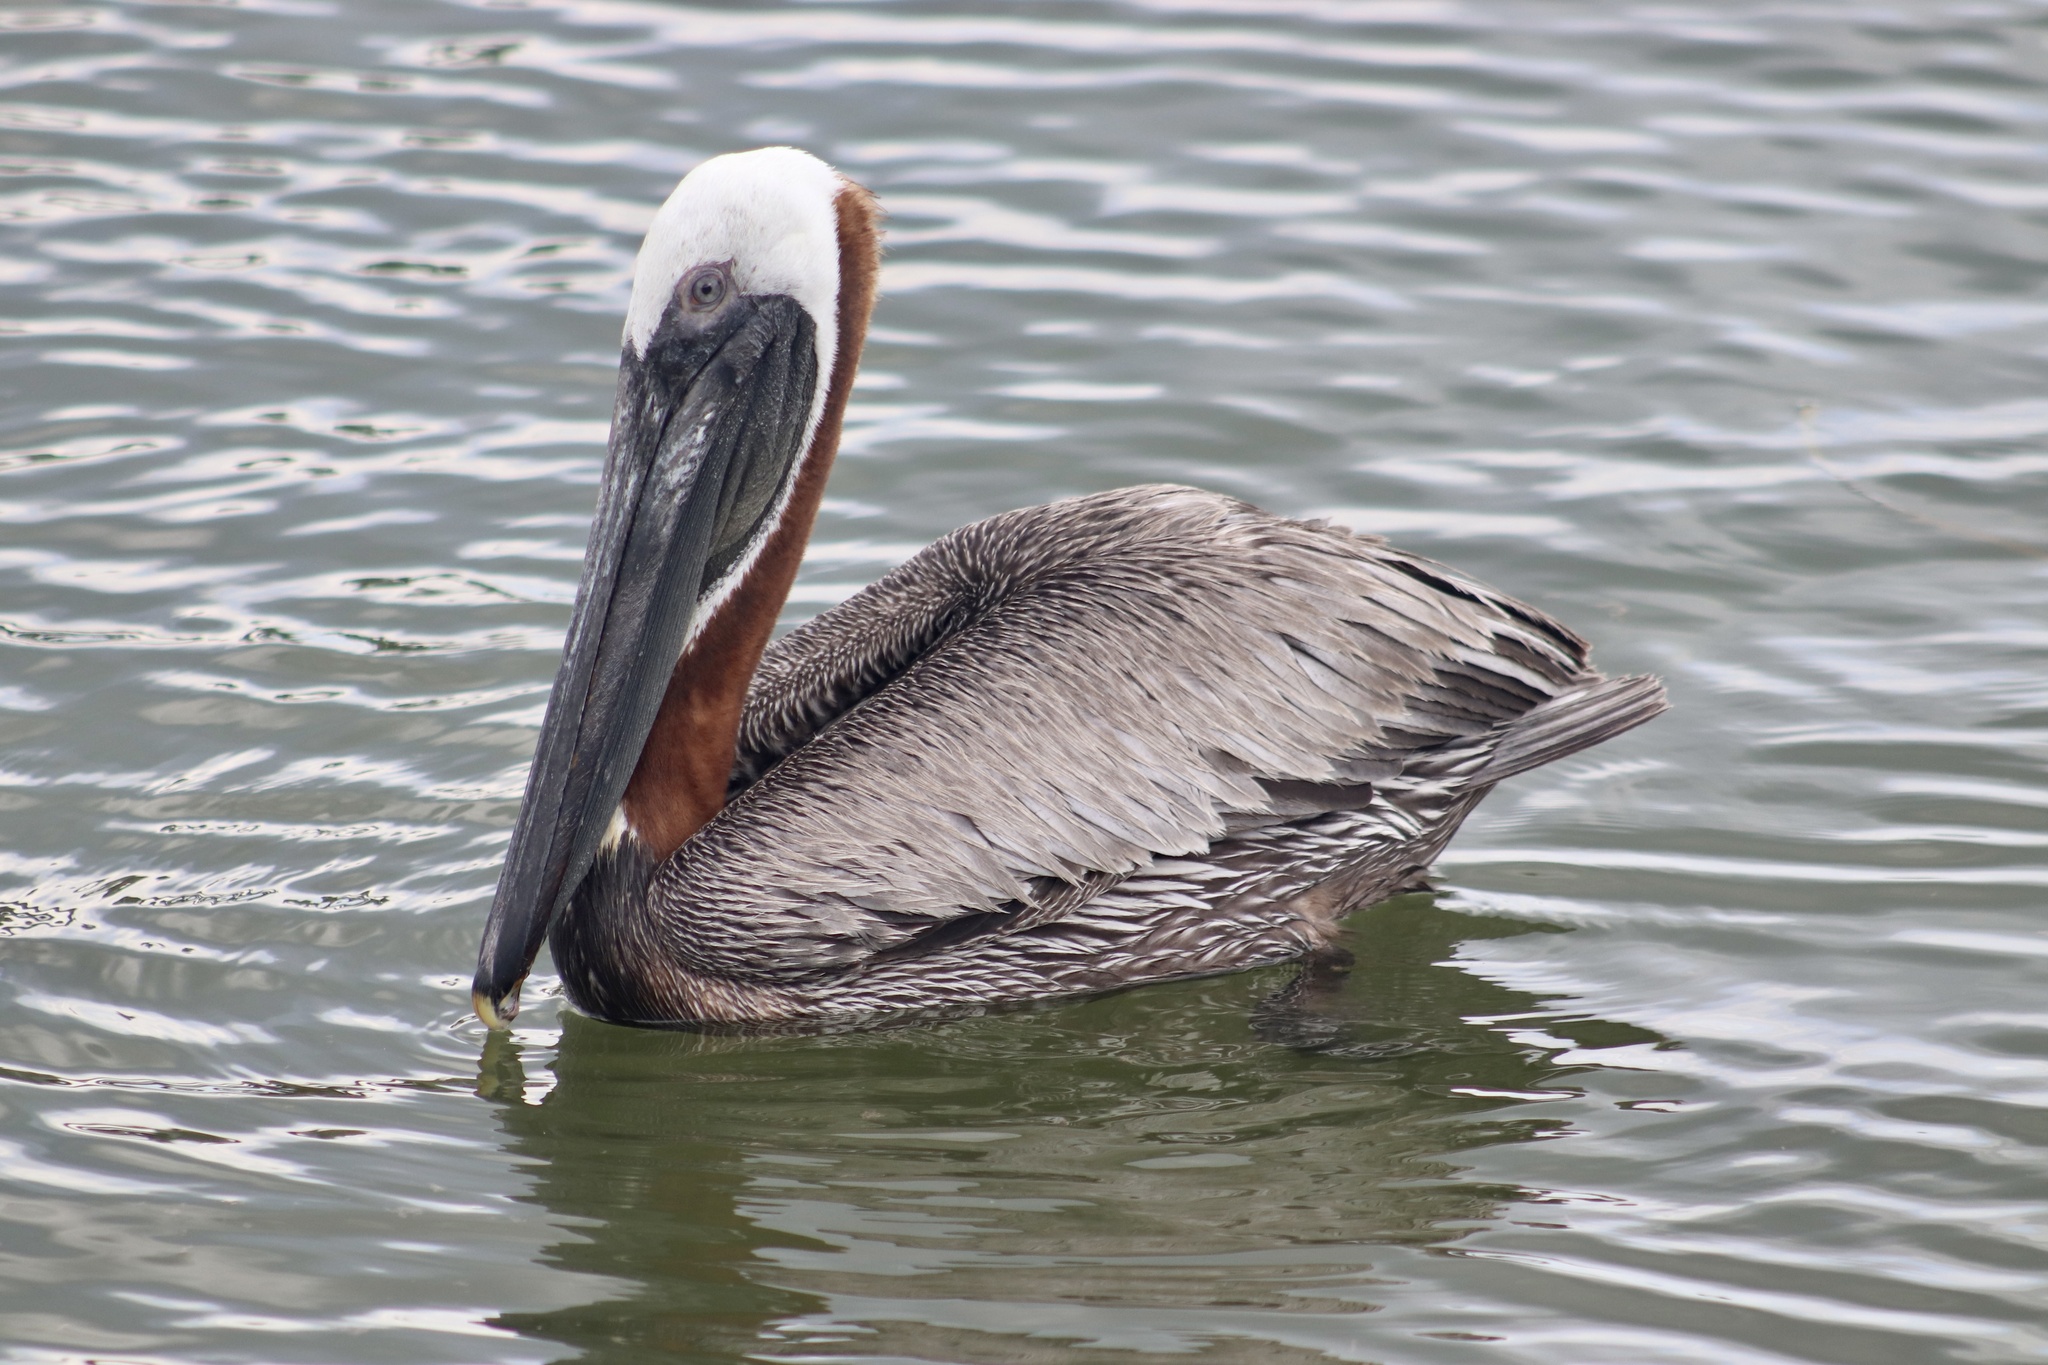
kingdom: Animalia
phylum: Chordata
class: Aves
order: Pelecaniformes
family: Pelecanidae
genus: Pelecanus
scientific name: Pelecanus occidentalis
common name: Brown pelican
